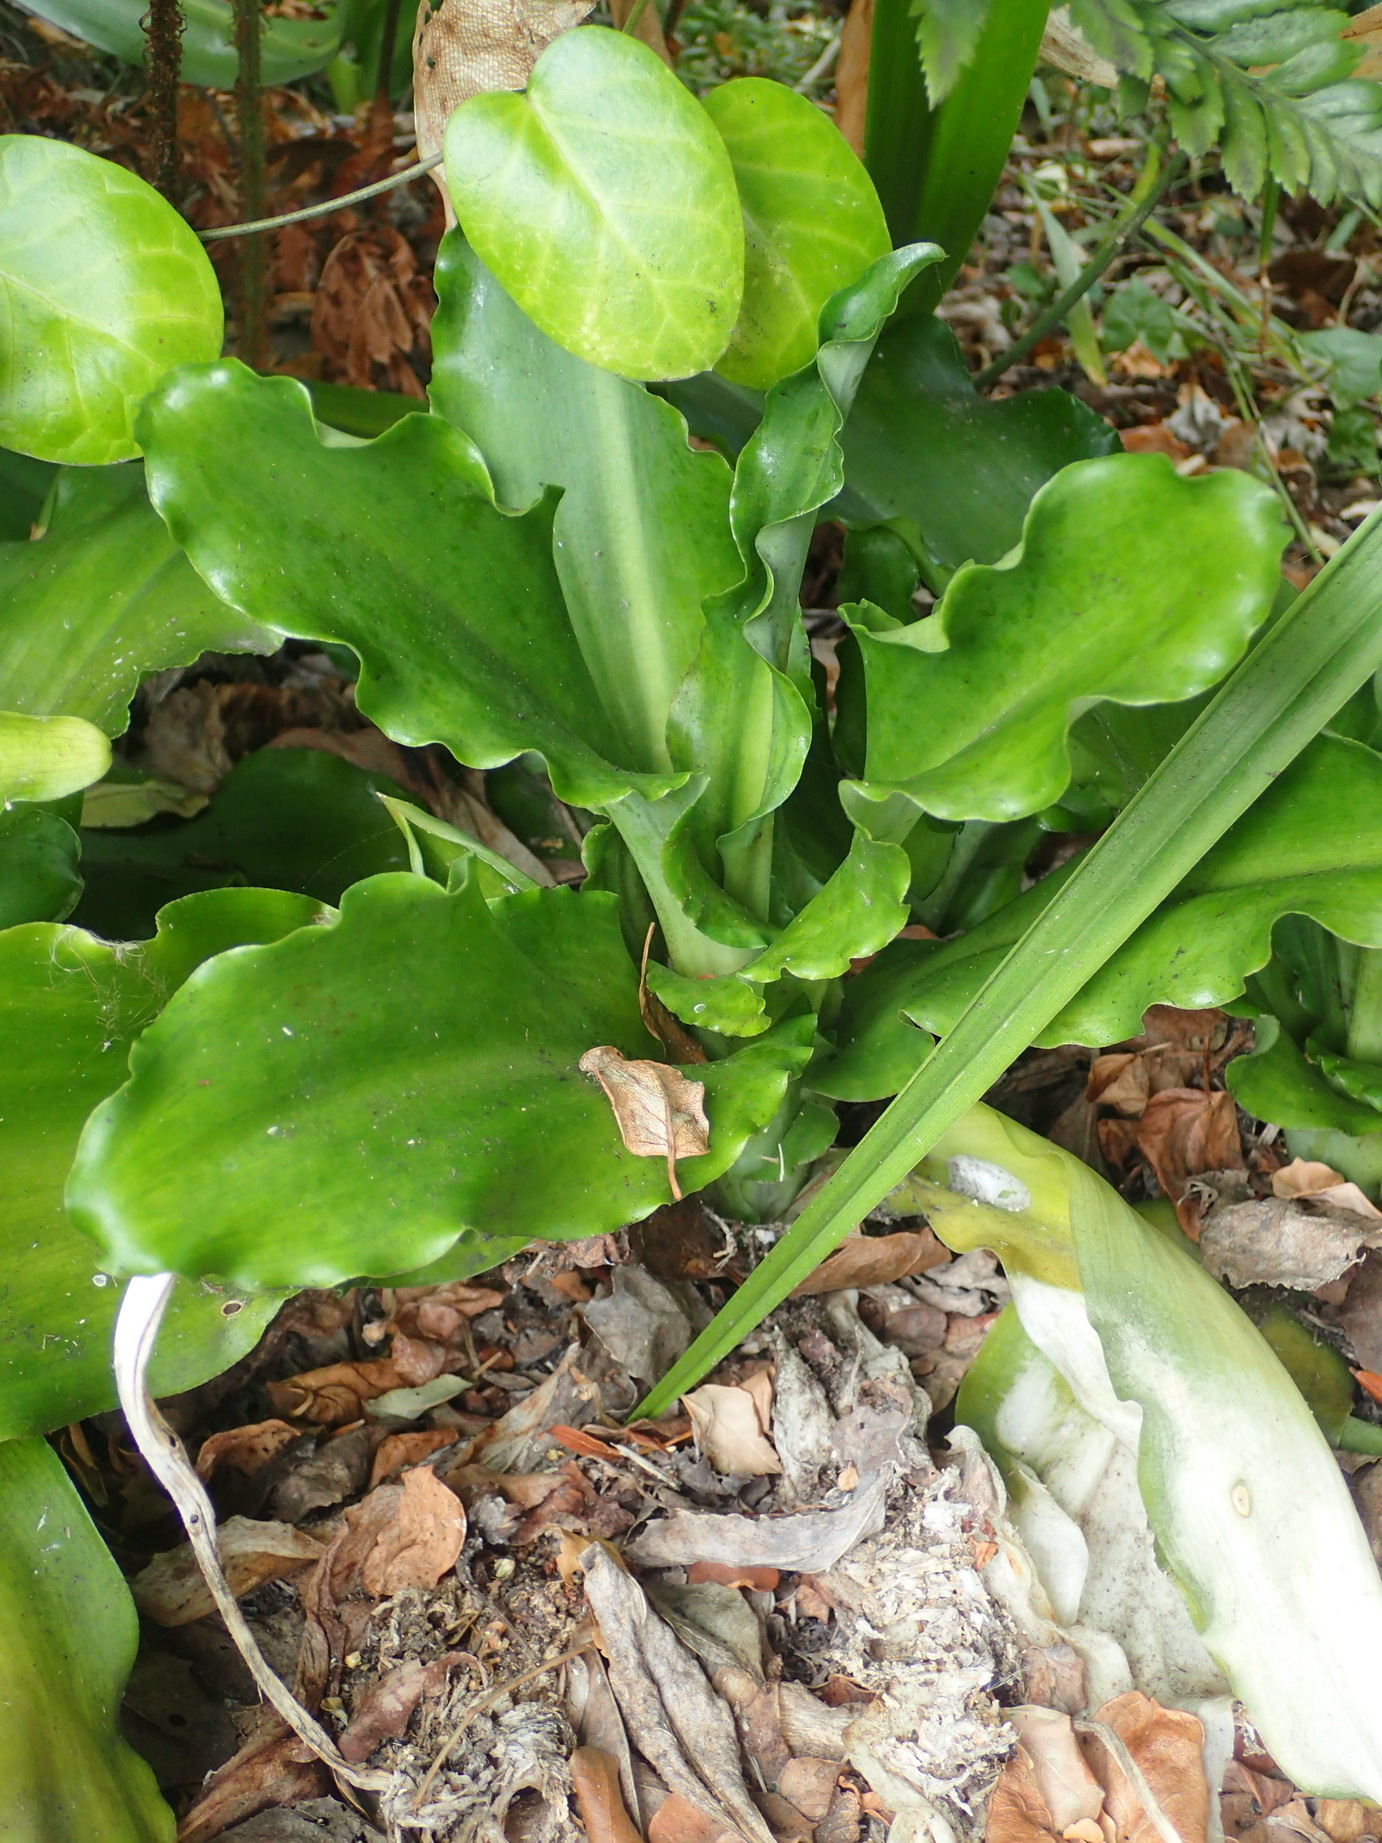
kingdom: Plantae
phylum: Tracheophyta
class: Liliopsida
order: Asparagales
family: Asparagaceae
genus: Veltheimia
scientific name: Veltheimia bracteata
